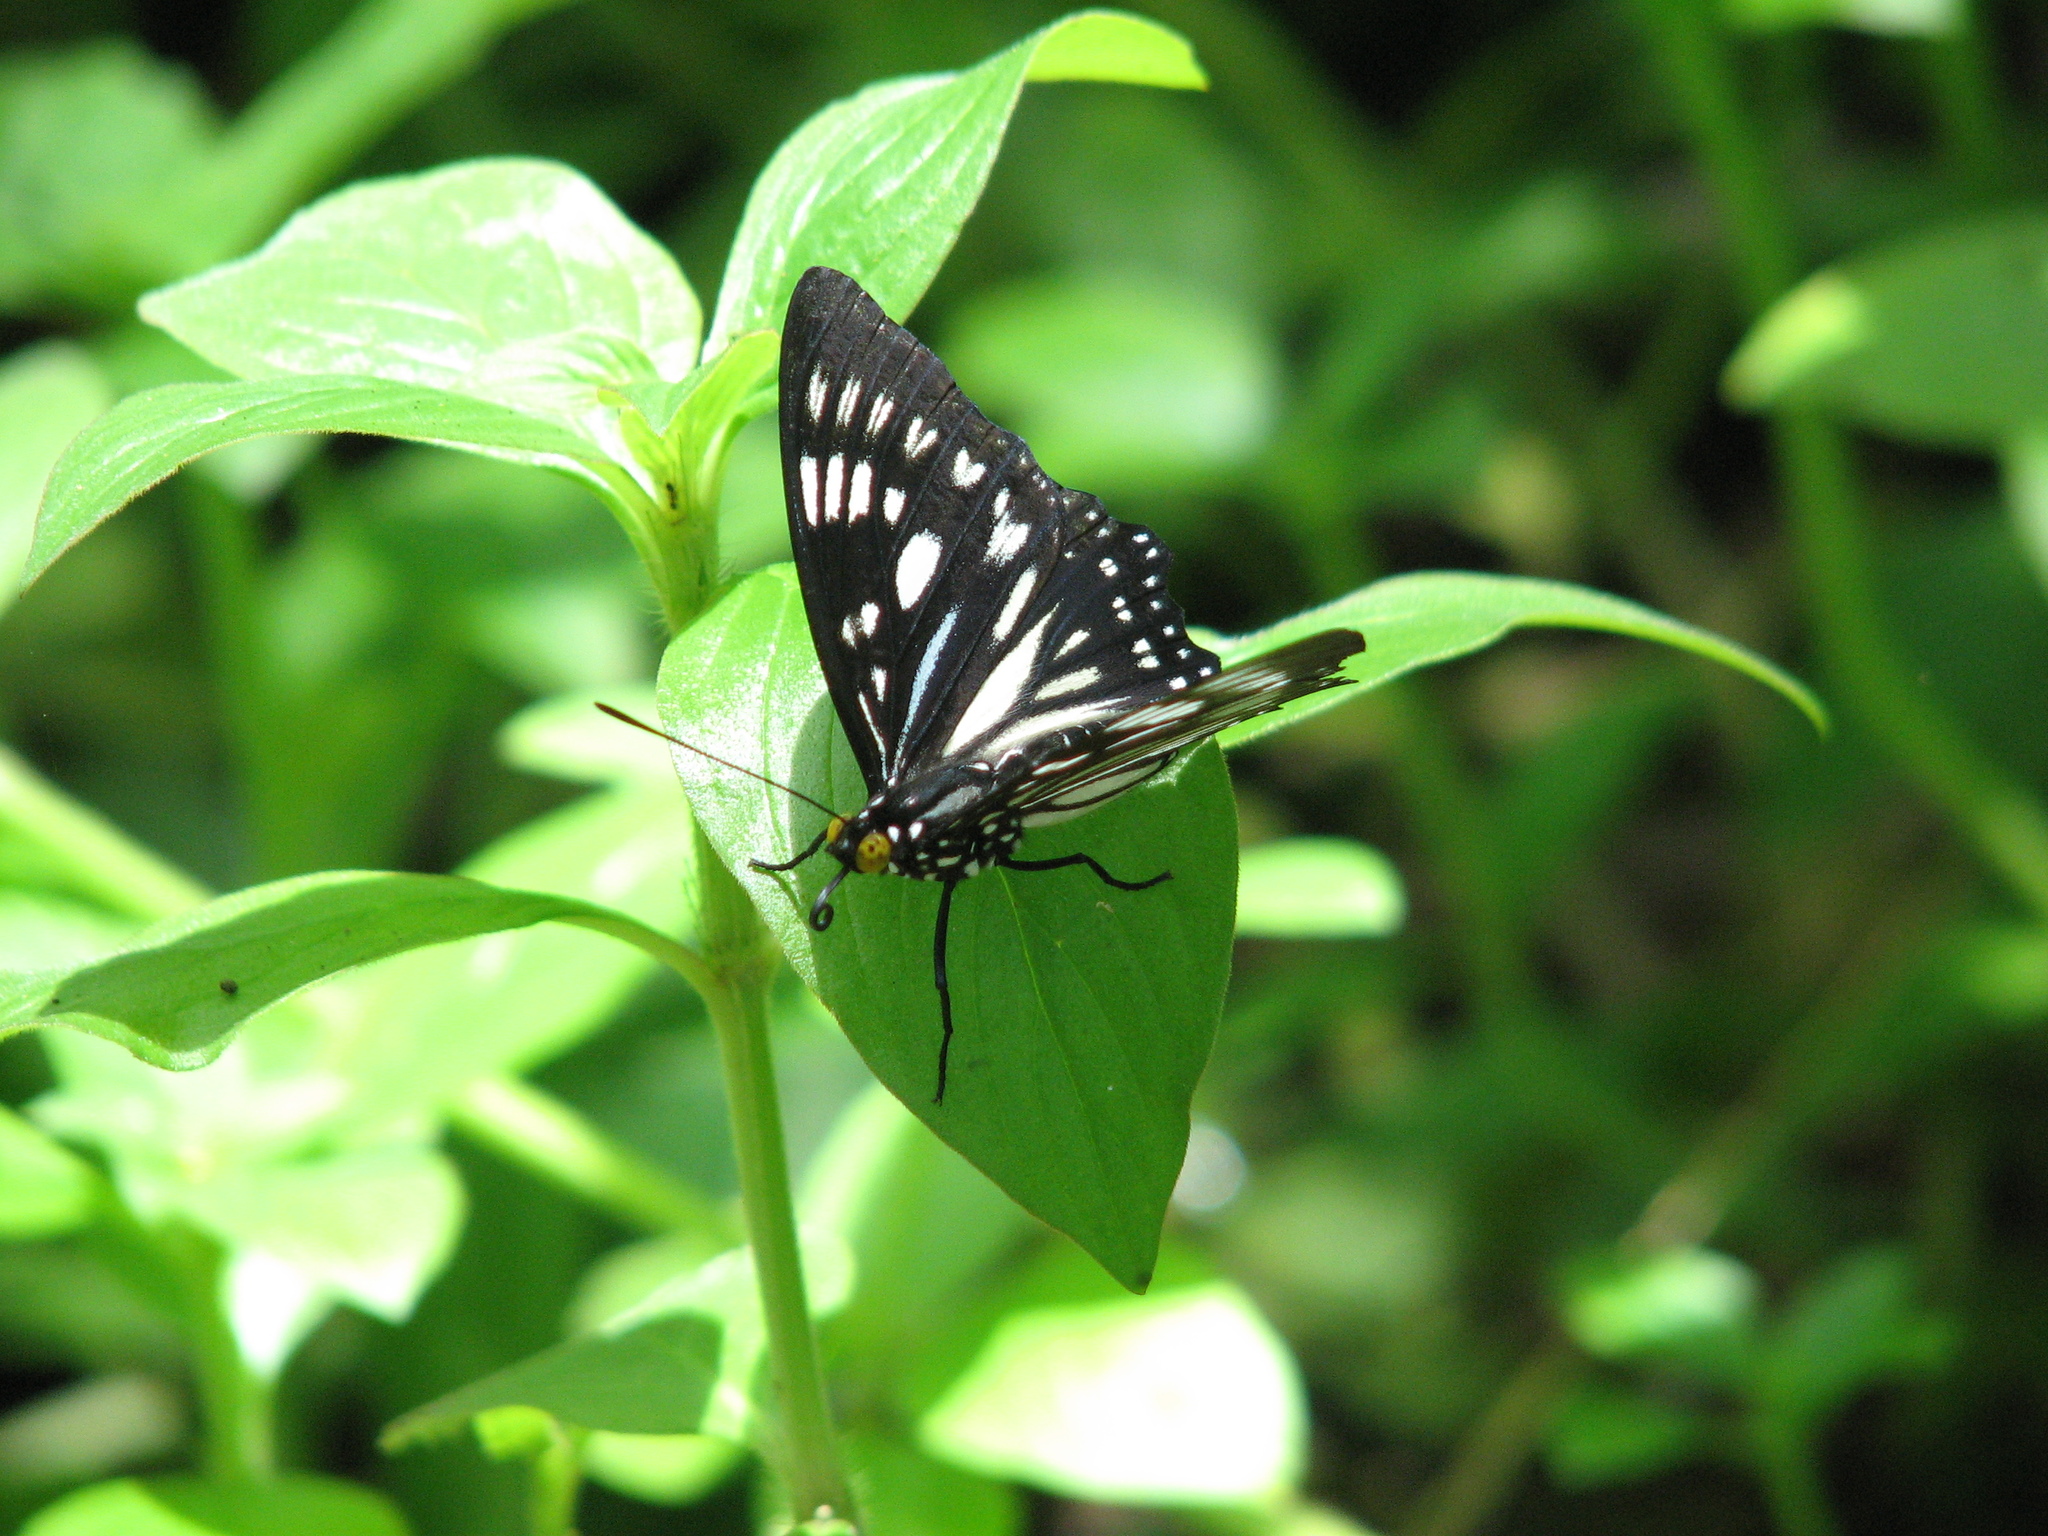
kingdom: Animalia
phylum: Arthropoda
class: Insecta
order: Lepidoptera
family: Nymphalidae
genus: Euripus
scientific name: Euripus nyctelius
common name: Courtesan
